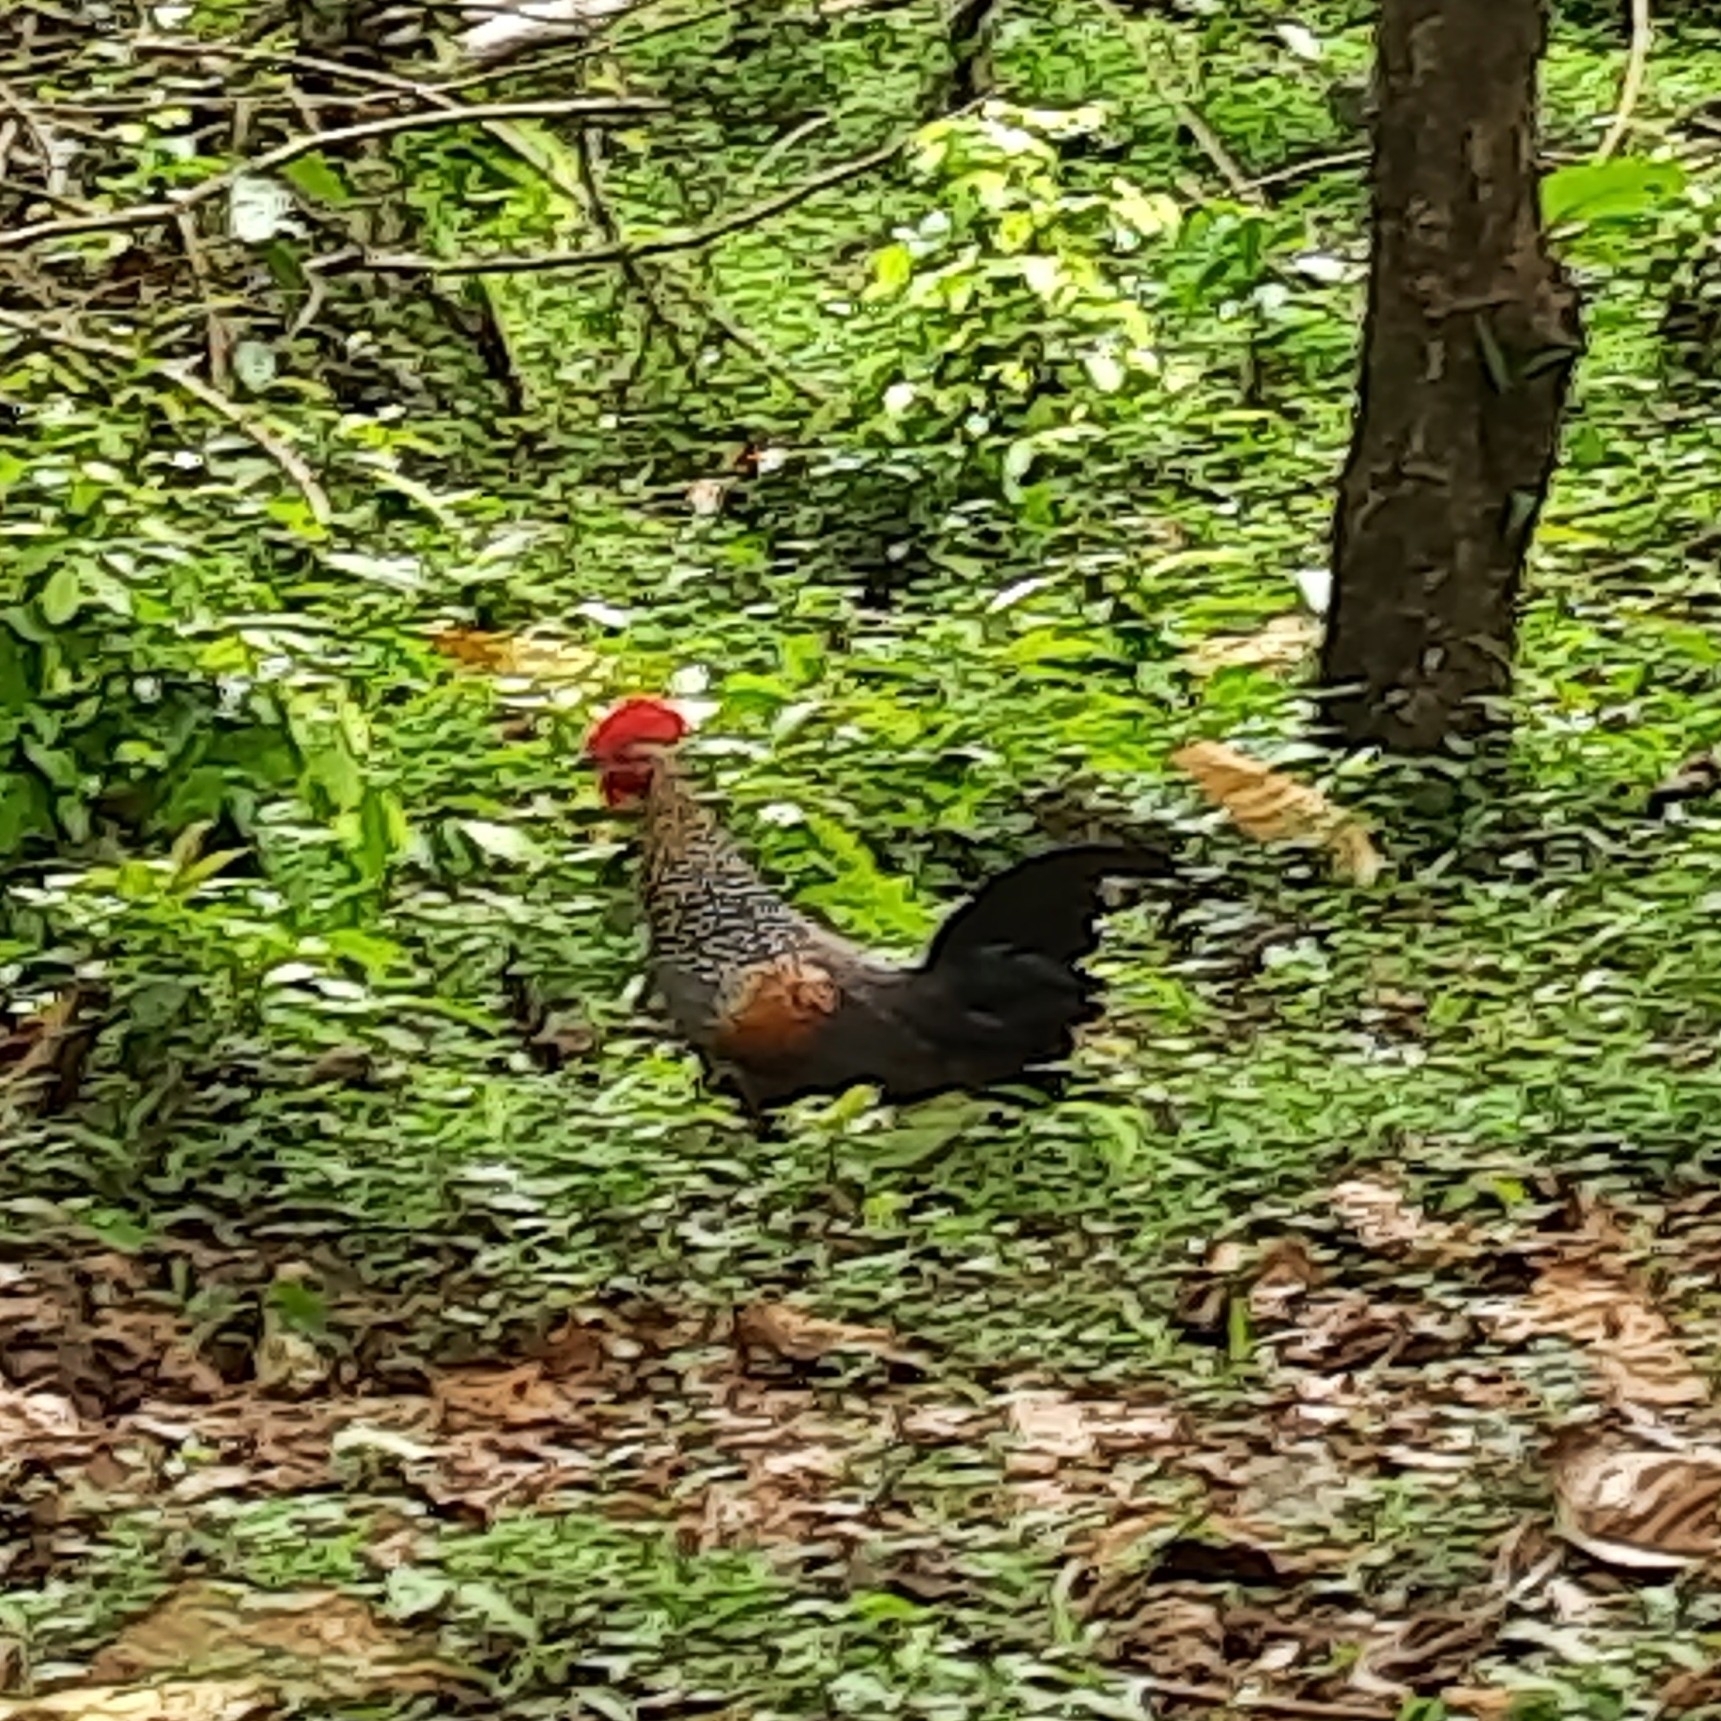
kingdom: Animalia
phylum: Chordata
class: Aves
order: Galliformes
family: Phasianidae
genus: Gallus
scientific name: Gallus sonneratii
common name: Grey junglefowl
